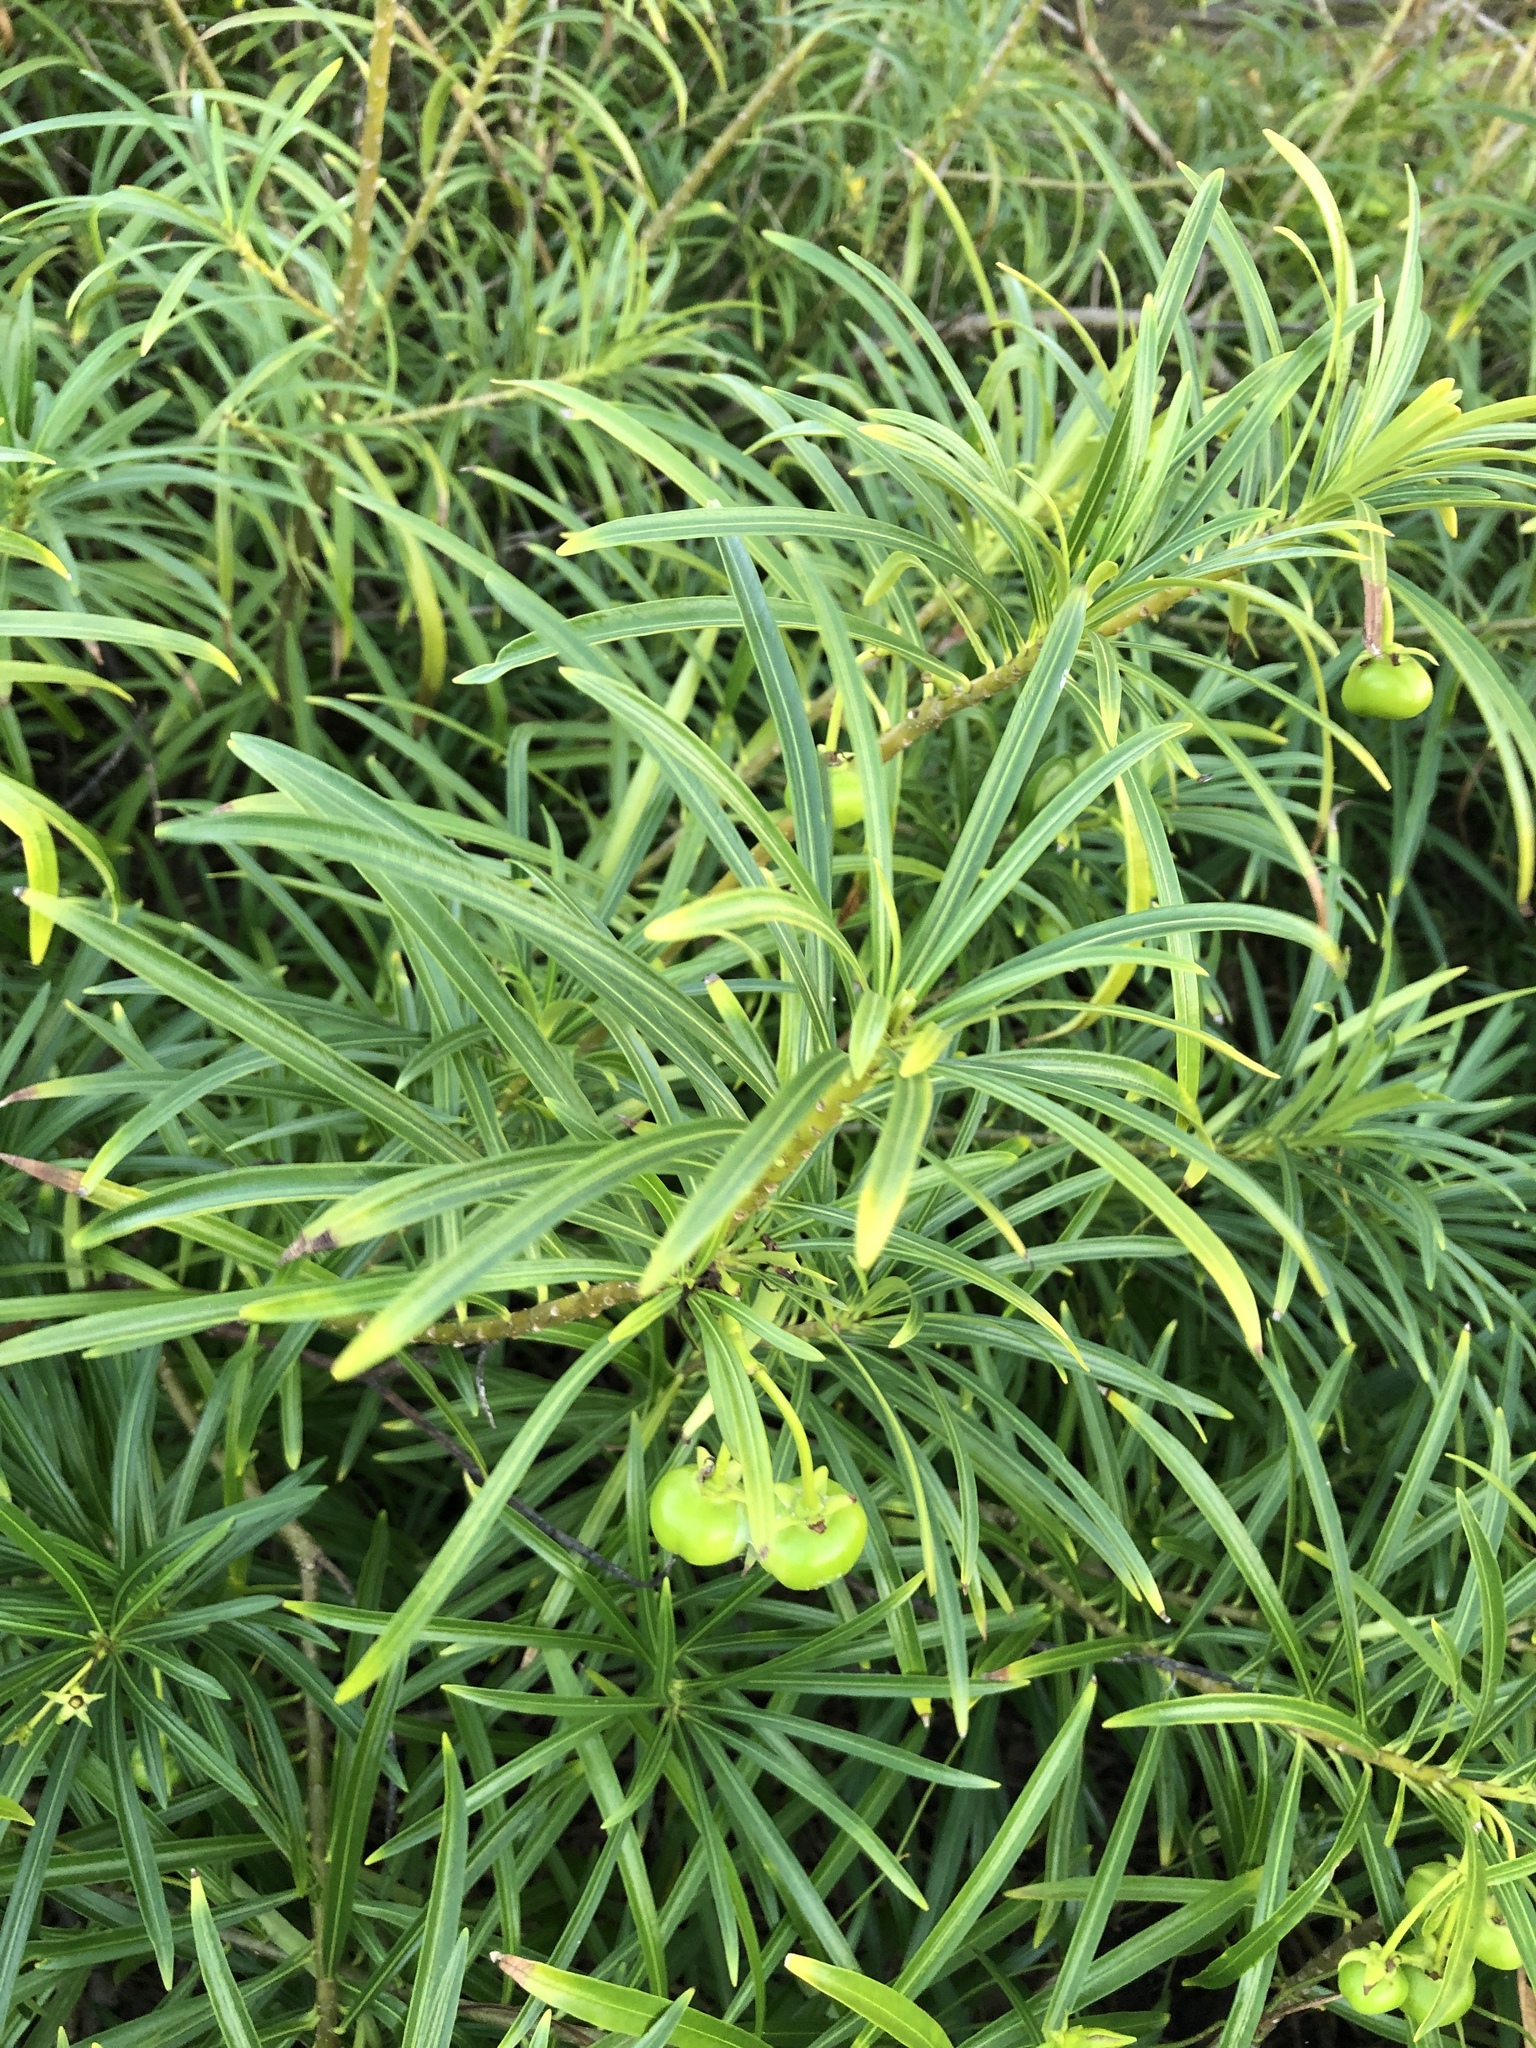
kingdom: Plantae
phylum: Tracheophyta
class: Magnoliopsida
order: Gentianales
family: Apocynaceae
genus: Cascabela
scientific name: Cascabela thevetia
